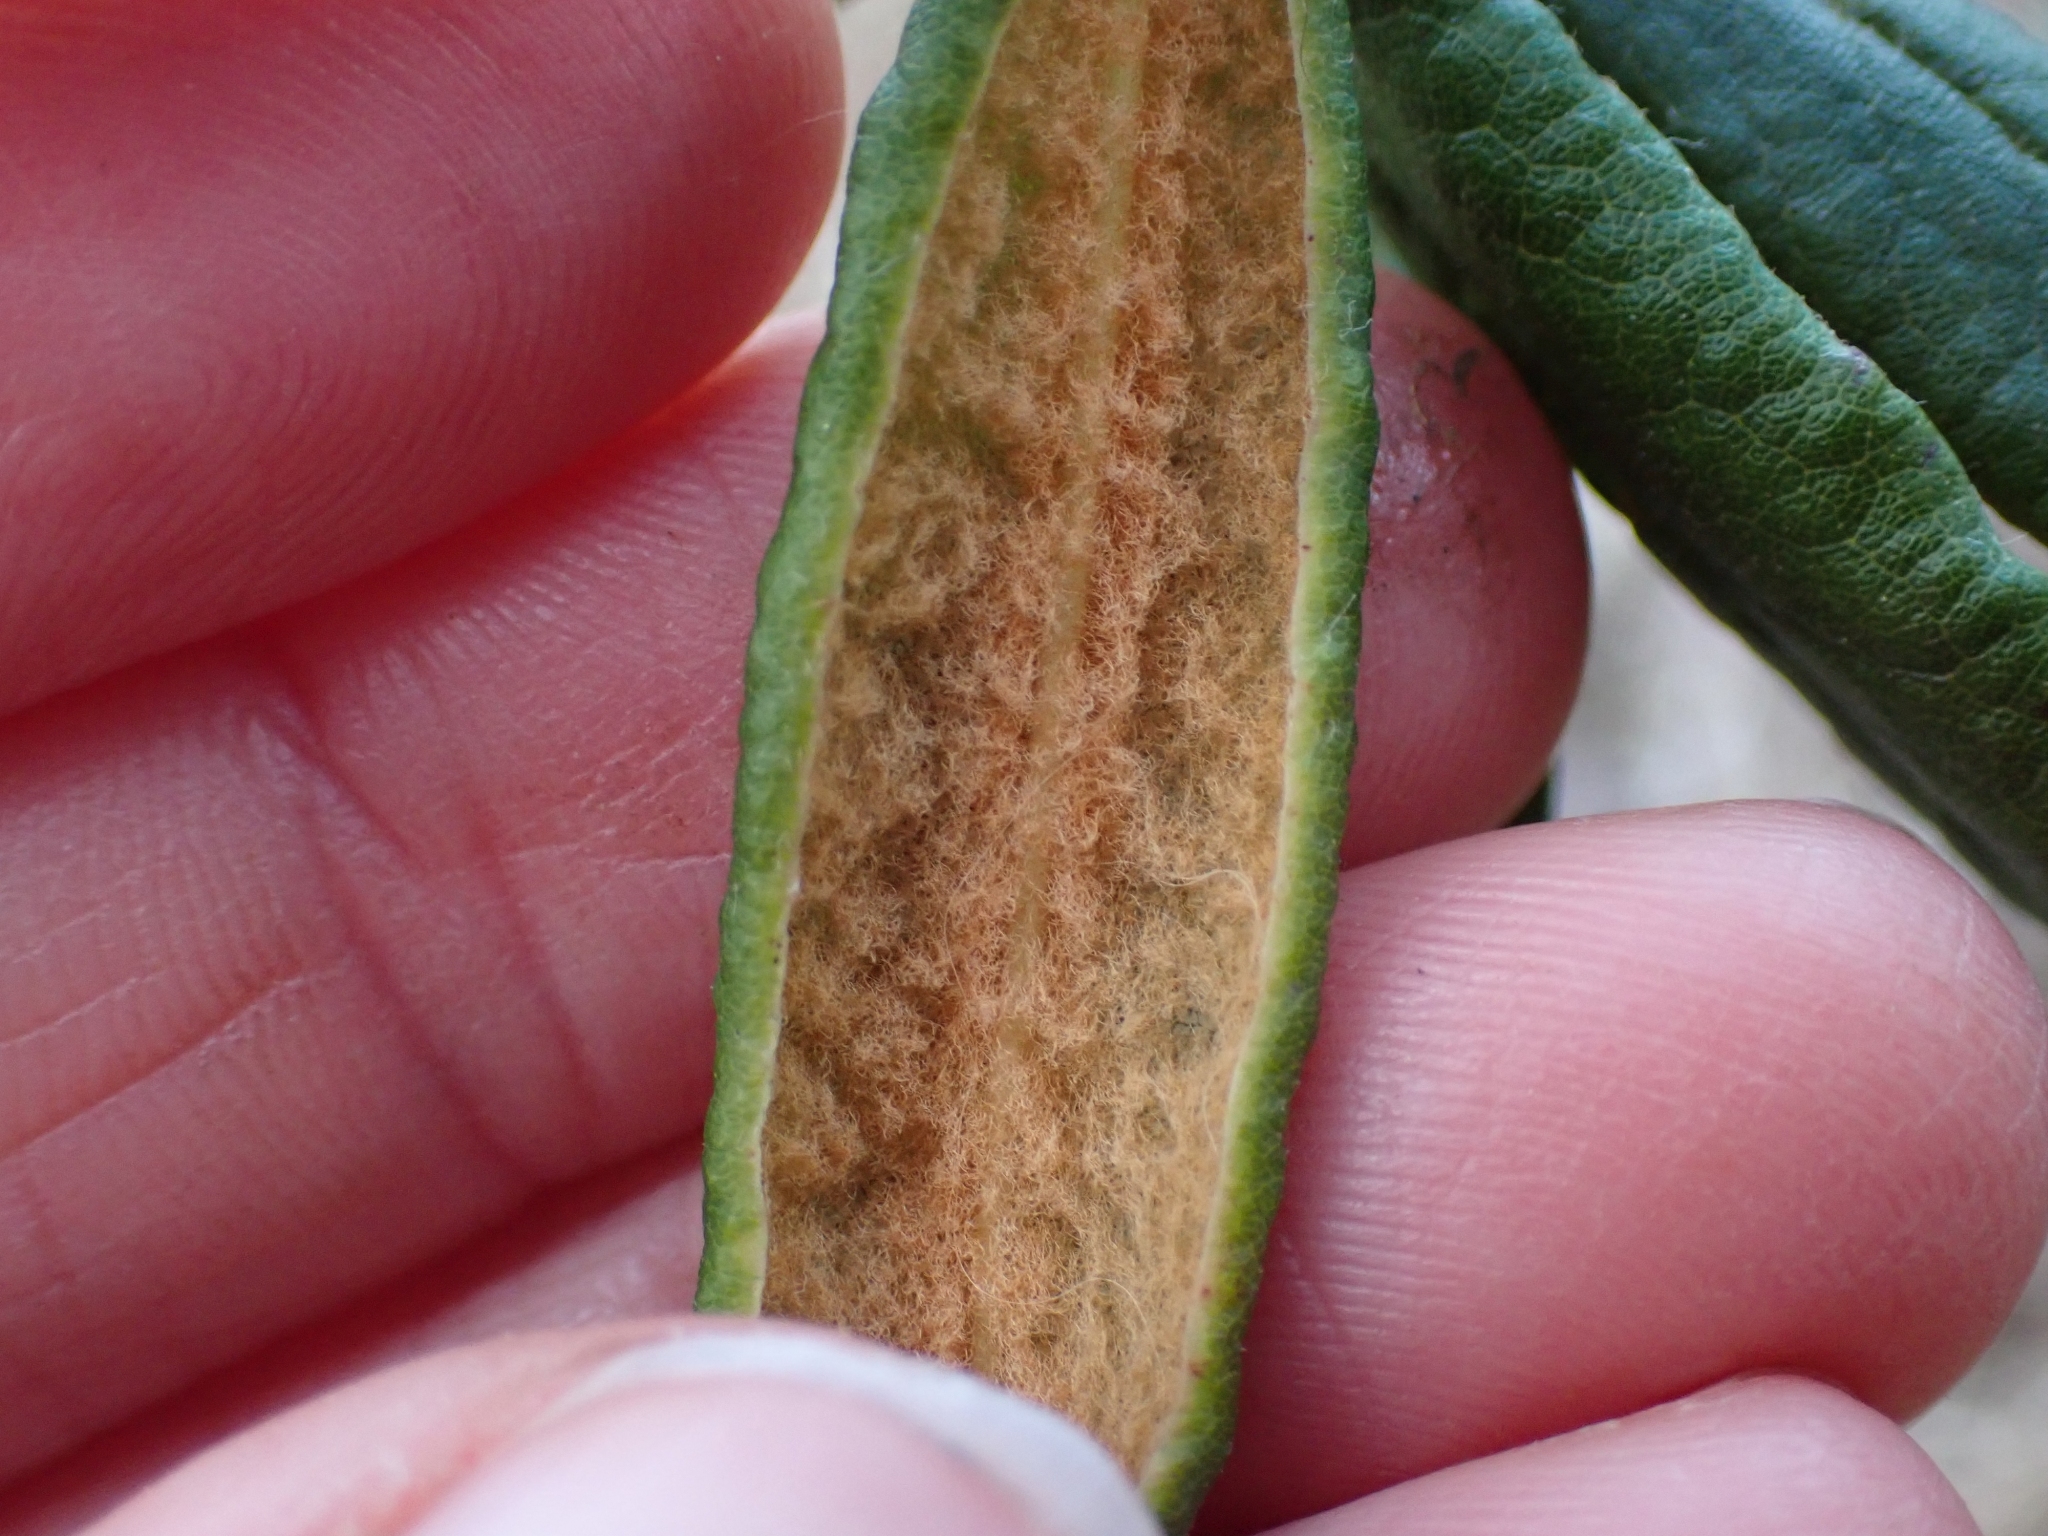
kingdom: Plantae
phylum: Tracheophyta
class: Magnoliopsida
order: Ericales
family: Ericaceae
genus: Rhododendron
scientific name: Rhododendron groenlandicum
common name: Bog labrador tea
